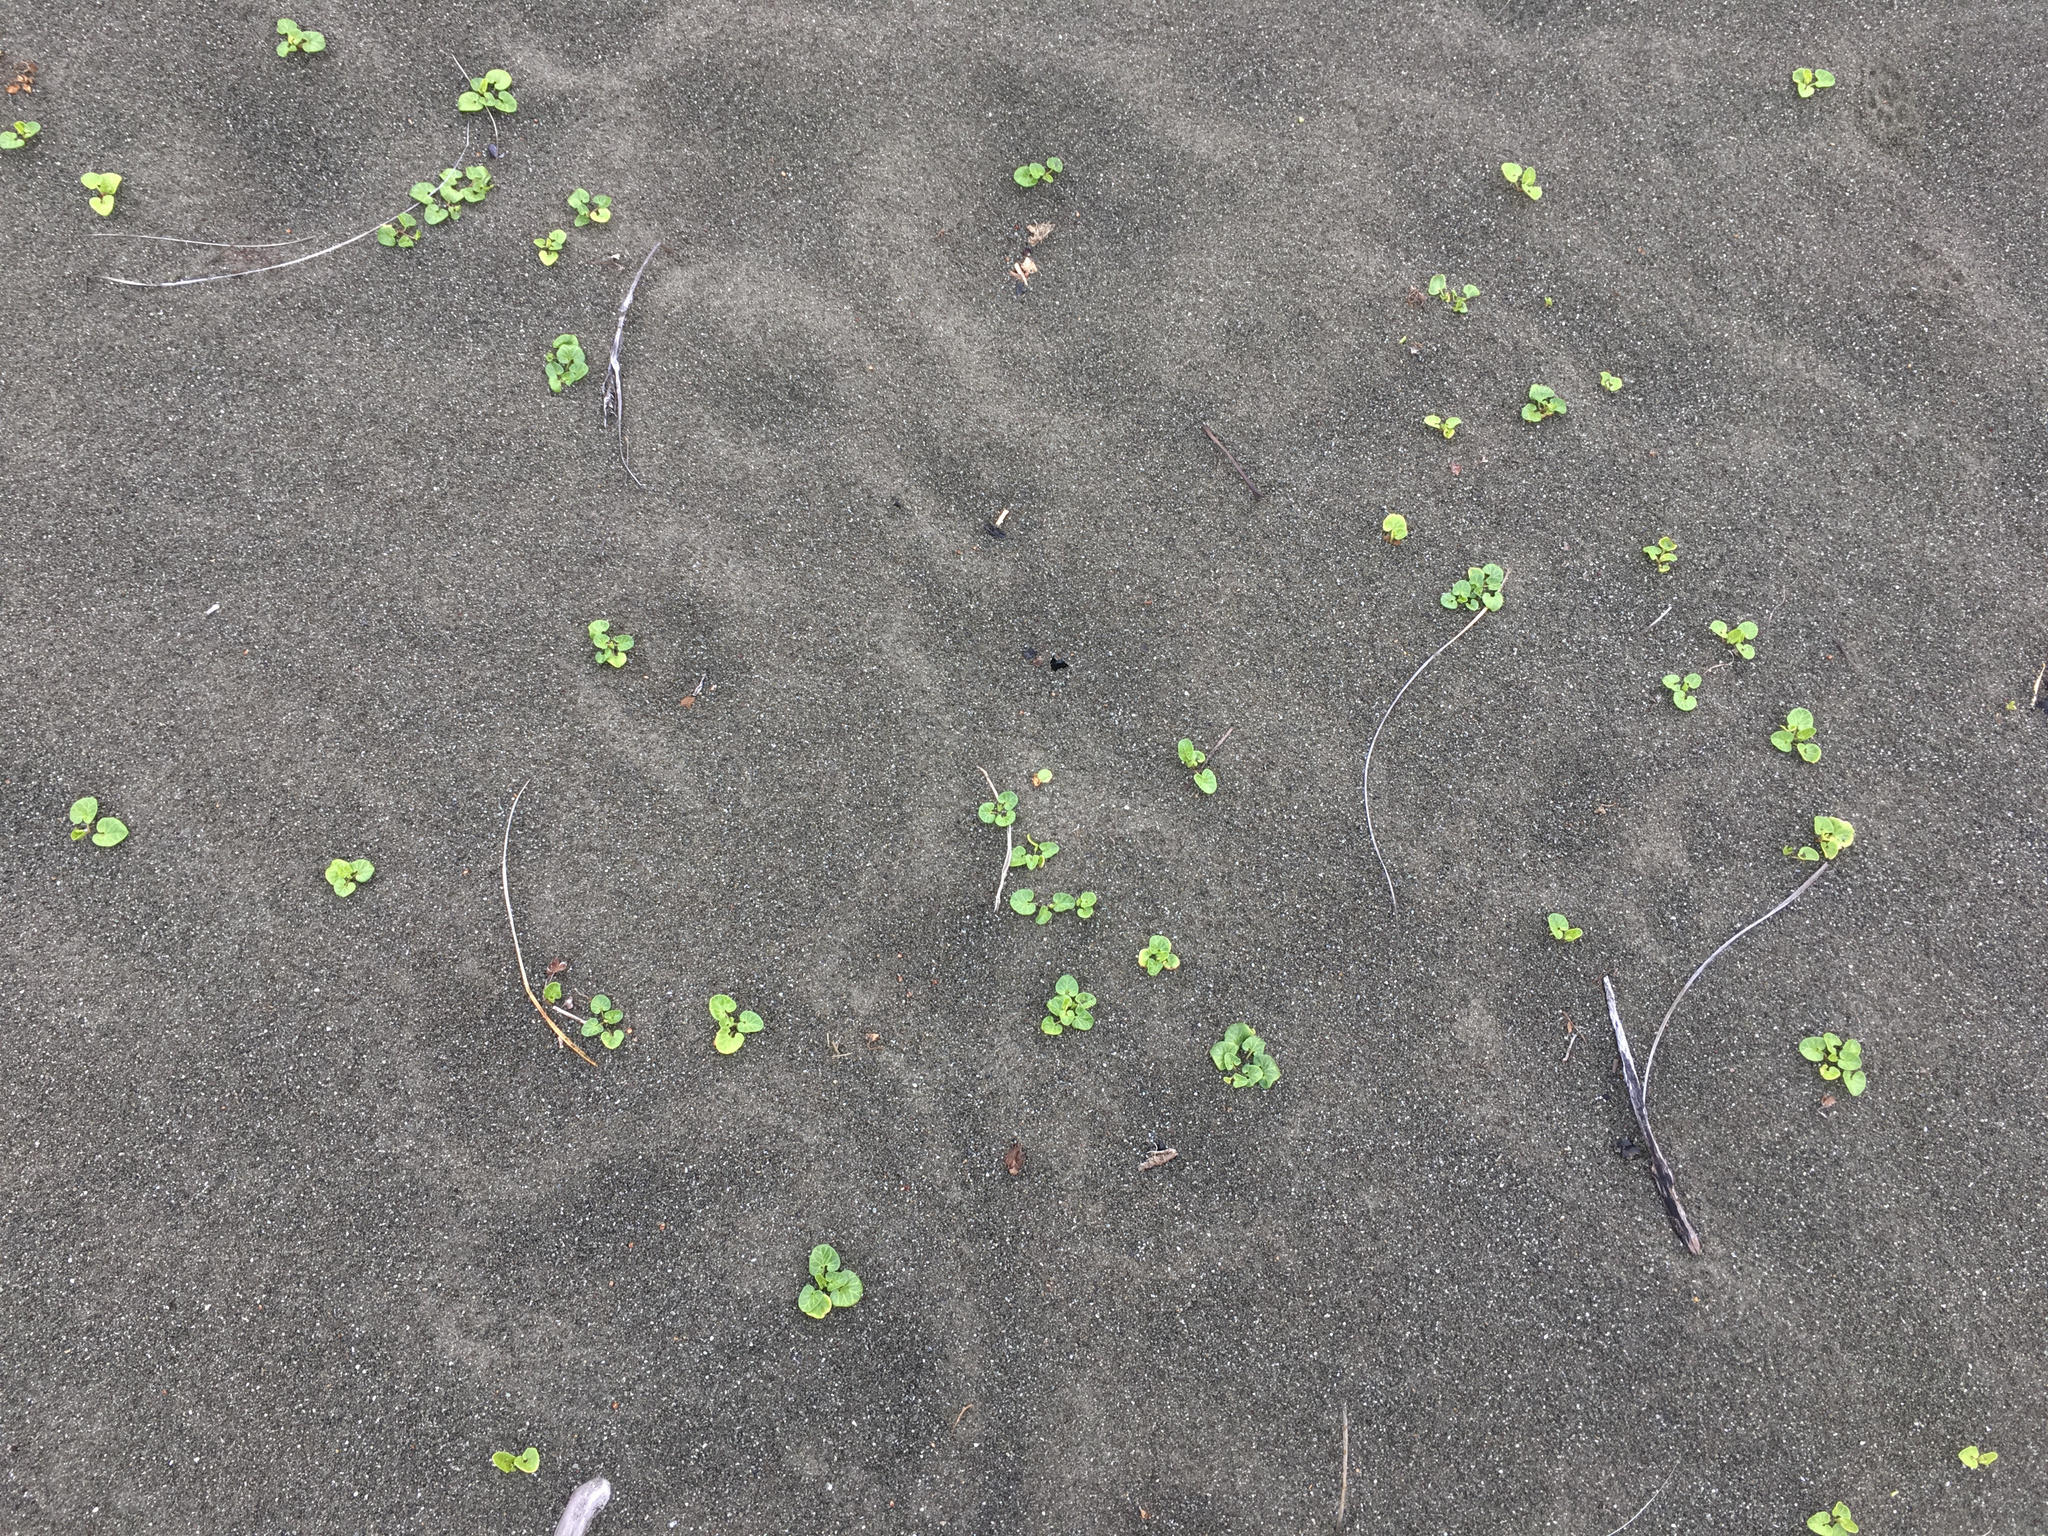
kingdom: Plantae
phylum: Tracheophyta
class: Magnoliopsida
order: Solanales
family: Convolvulaceae
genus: Calystegia
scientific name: Calystegia soldanella
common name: Sea bindweed
